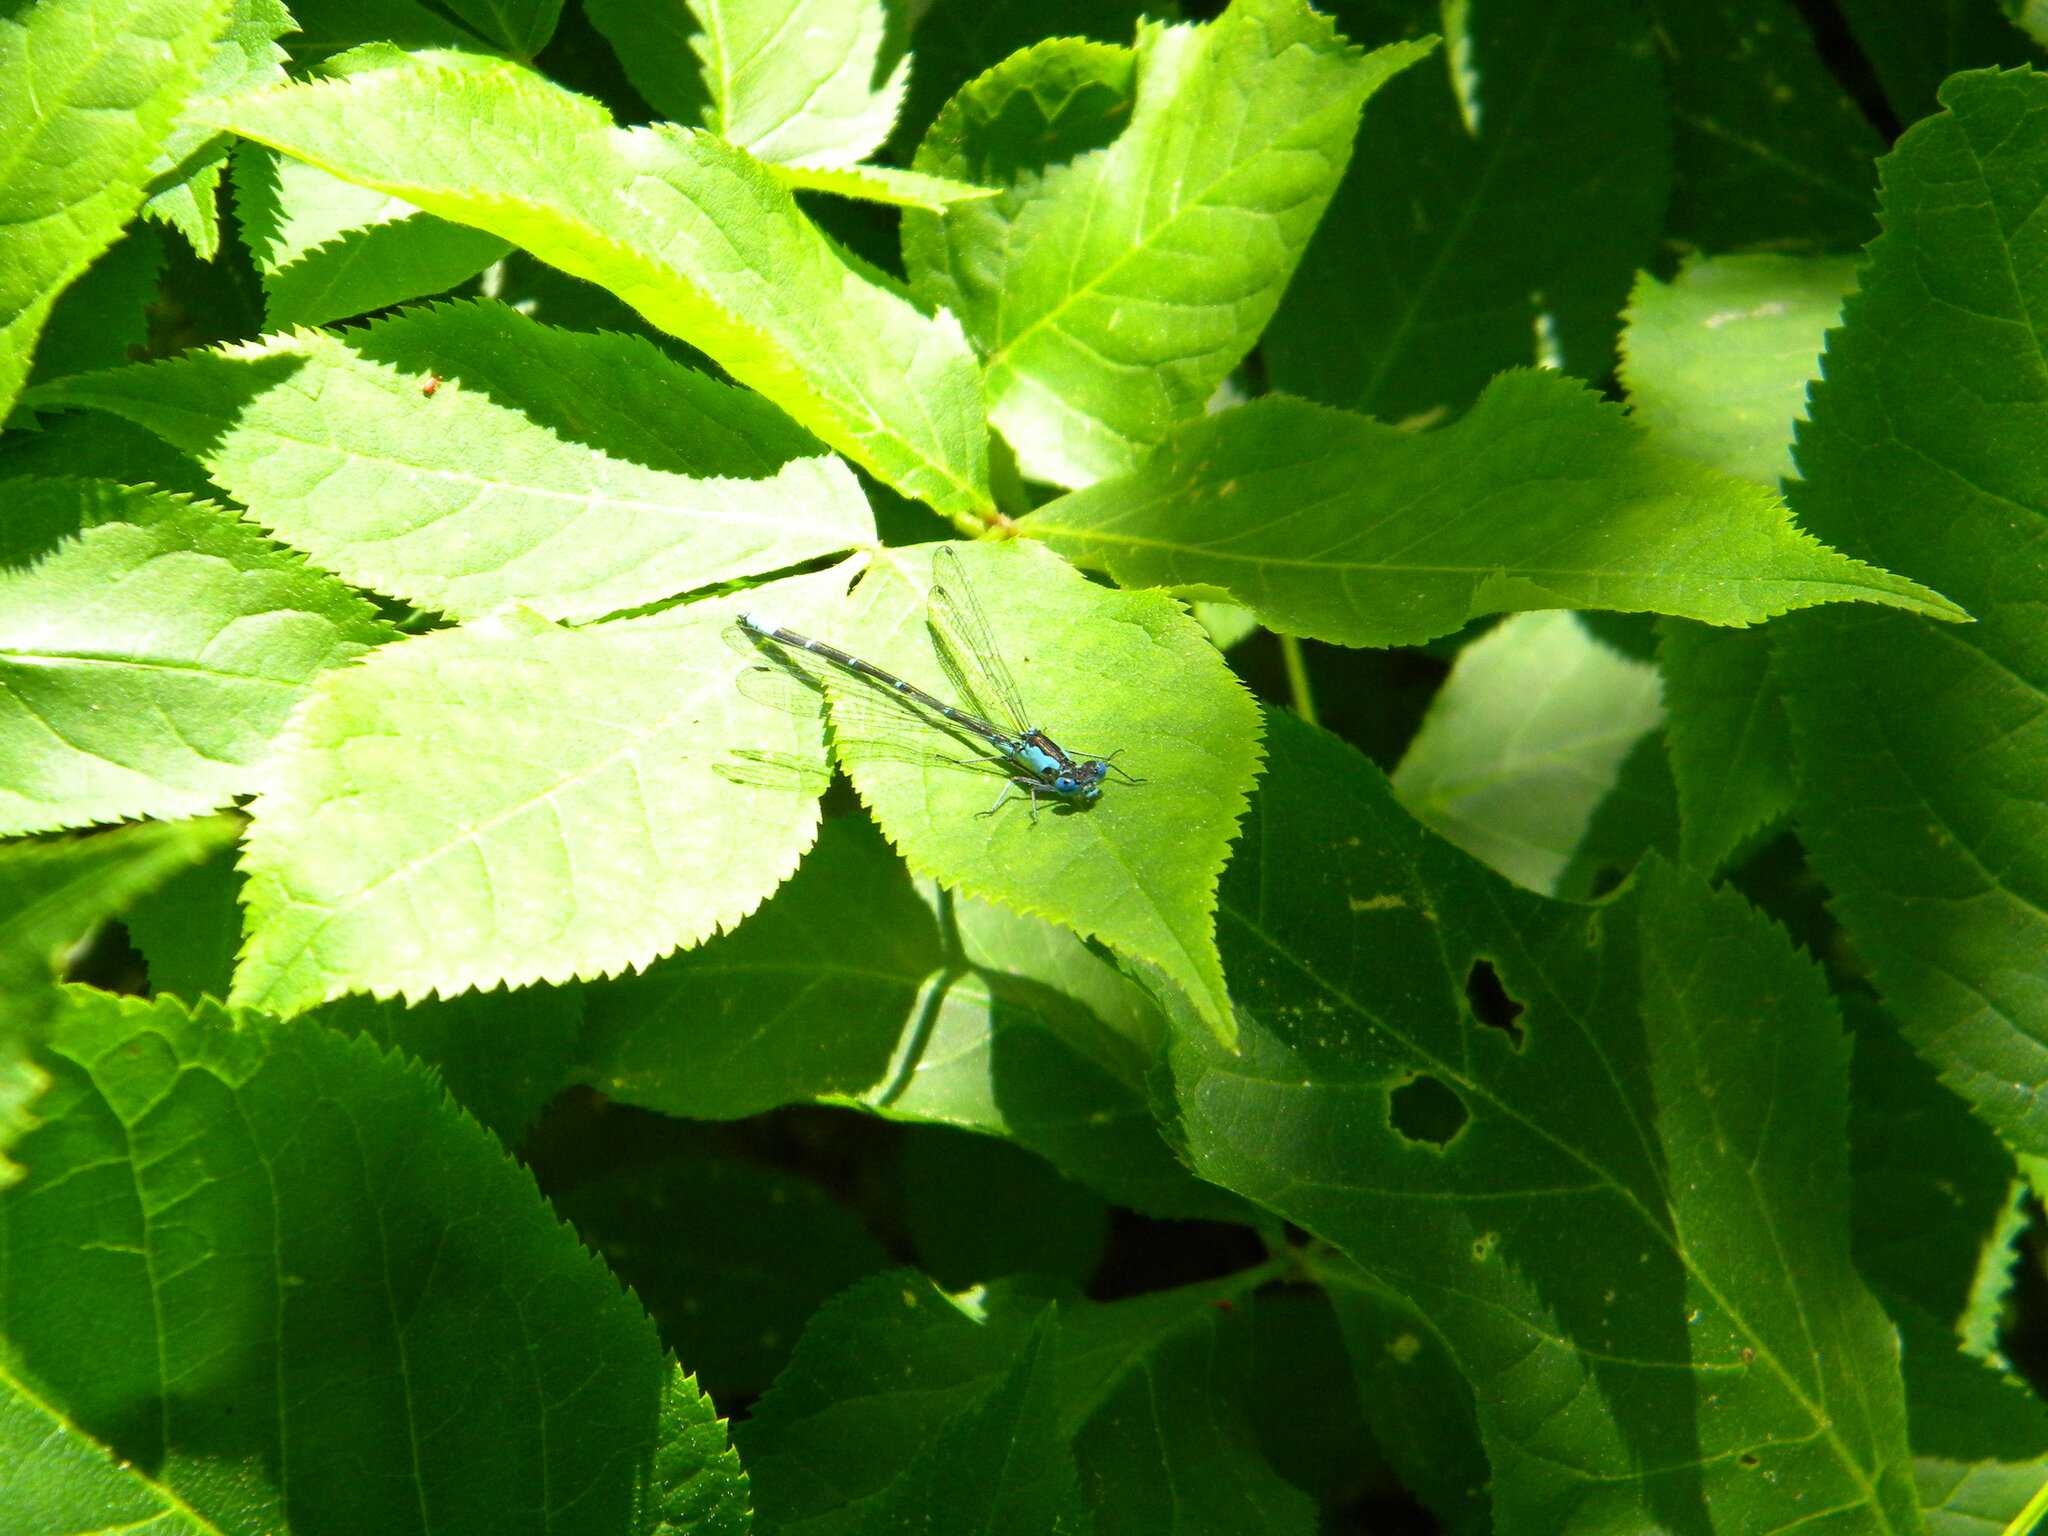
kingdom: Animalia
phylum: Arthropoda
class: Insecta
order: Odonata
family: Coenagrionidae
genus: Chromagrion
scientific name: Chromagrion conditum
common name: Aurora damsel
